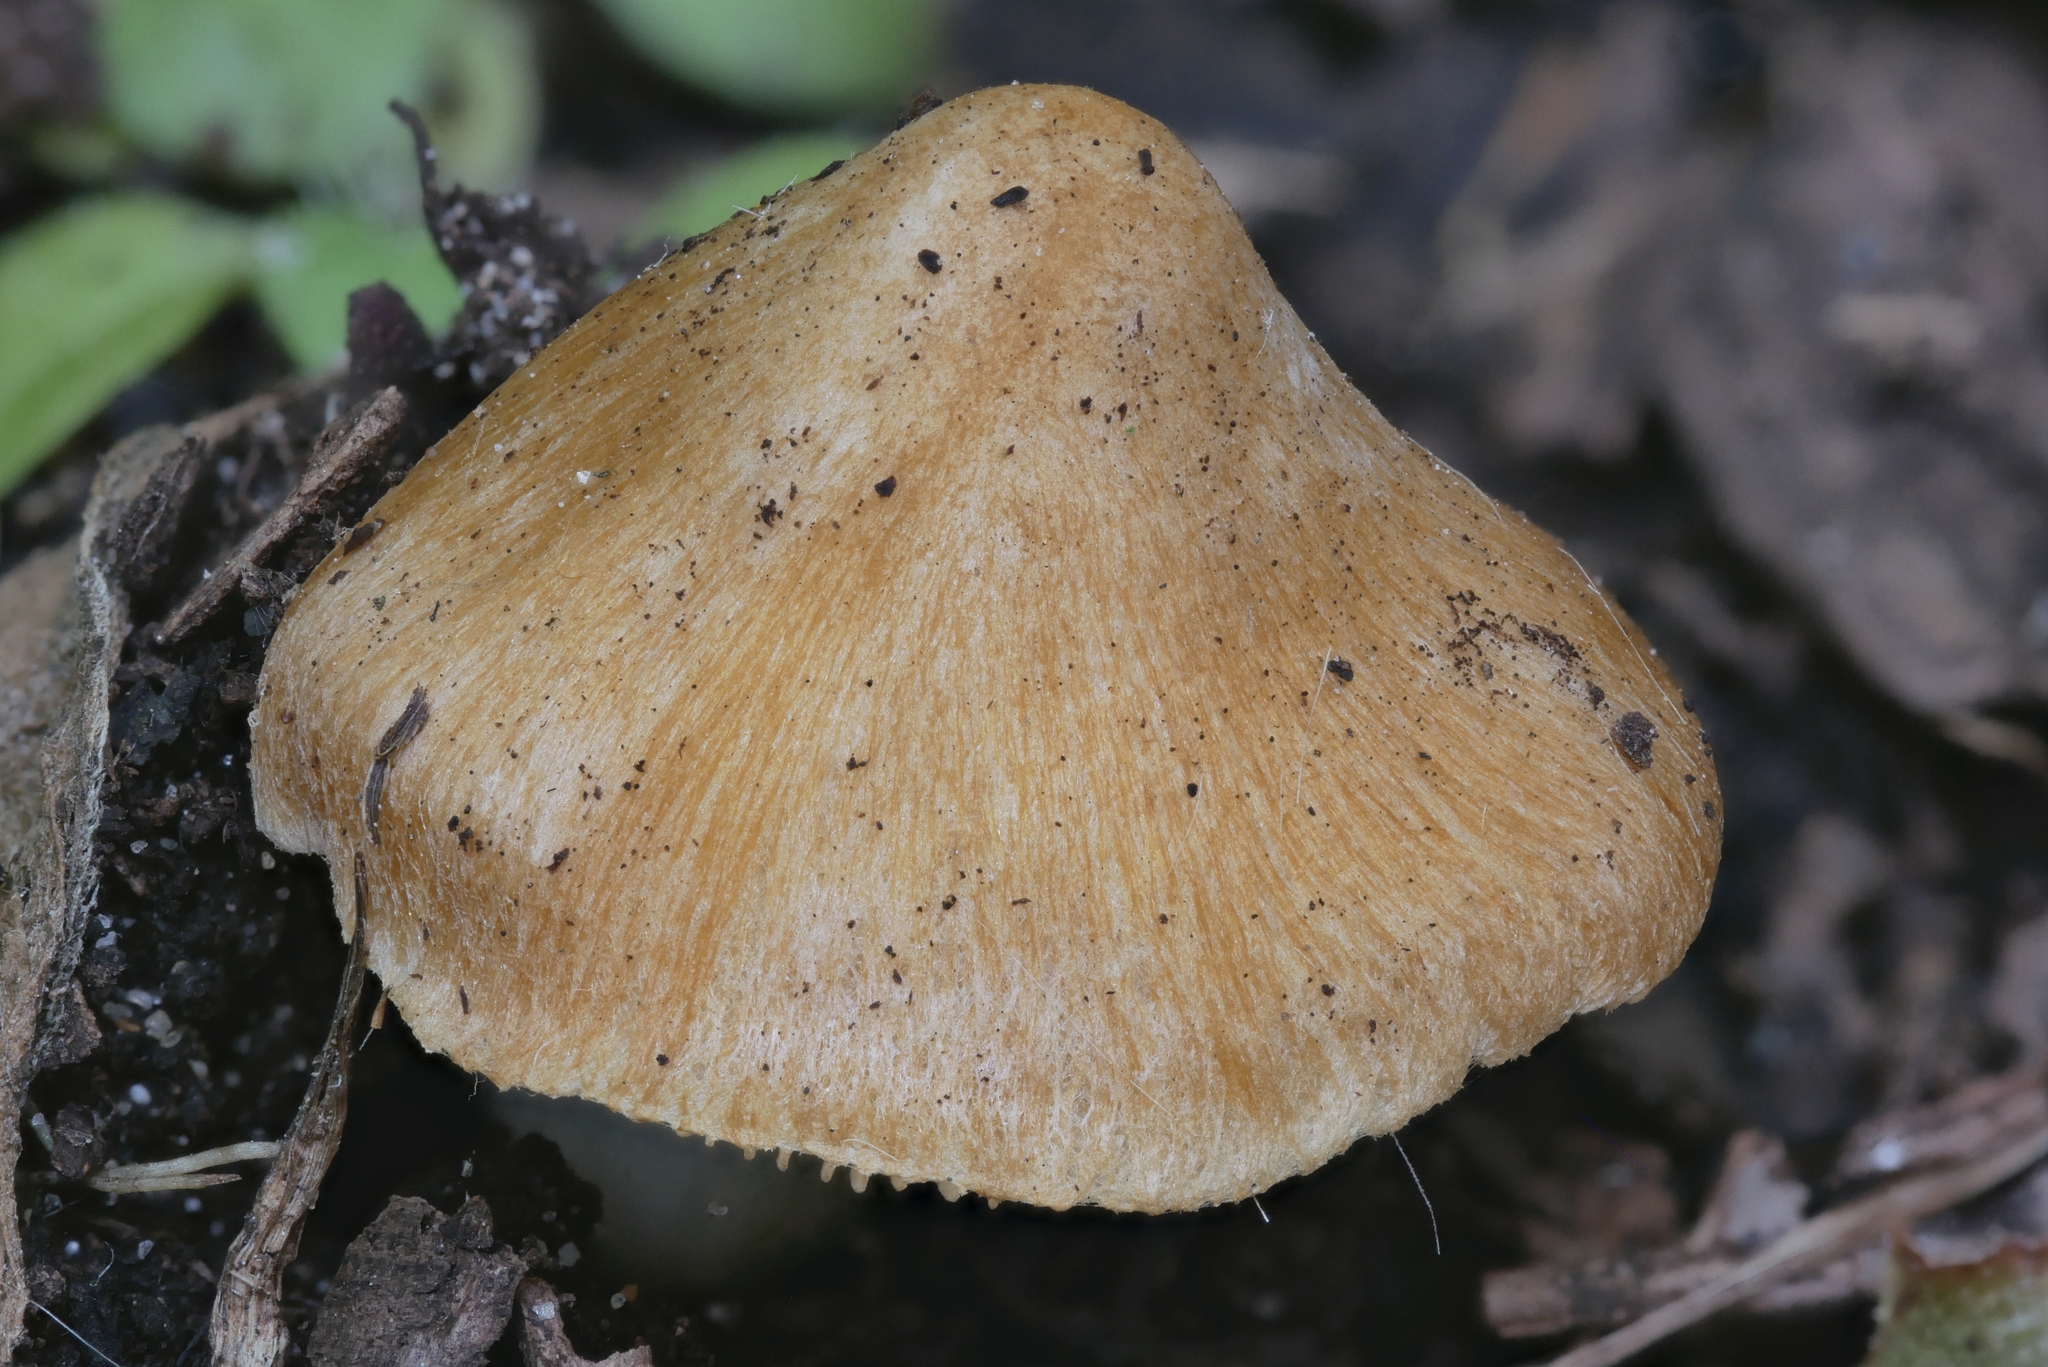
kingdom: Fungi
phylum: Basidiomycota
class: Agaricomycetes
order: Agaricales
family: Inocybaceae
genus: Inosperma
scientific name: Inosperma lanatodiscum
